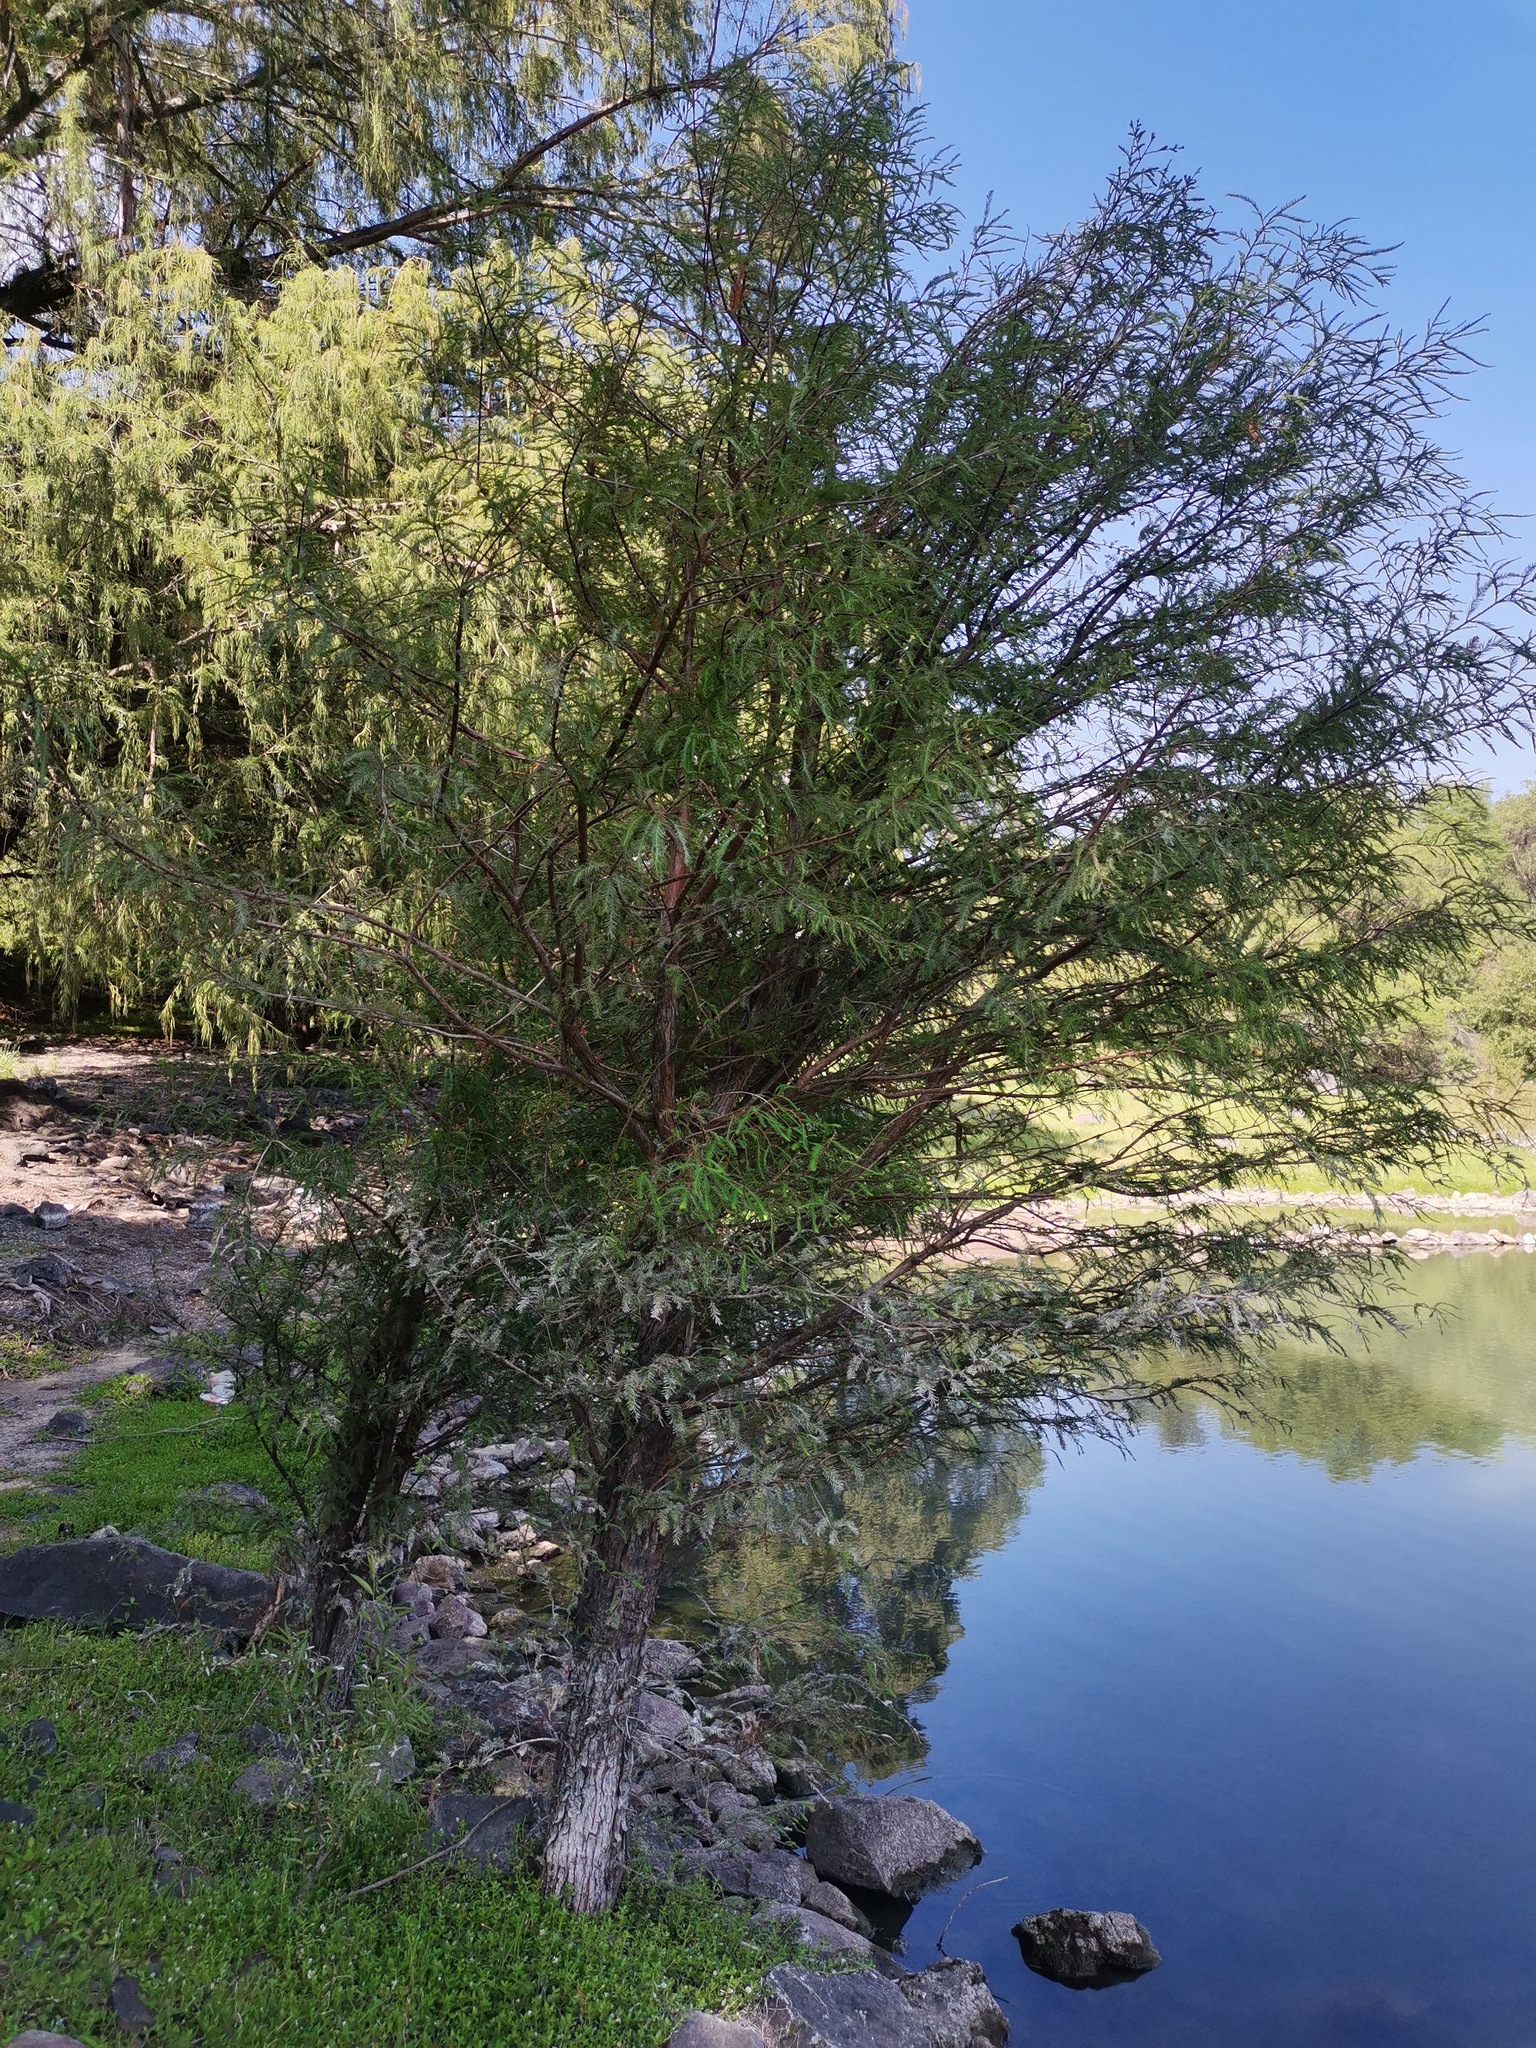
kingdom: Plantae
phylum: Tracheophyta
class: Pinopsida
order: Pinales
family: Cupressaceae
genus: Taxodium
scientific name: Taxodium mucronatum
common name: Montezume bald cypress
